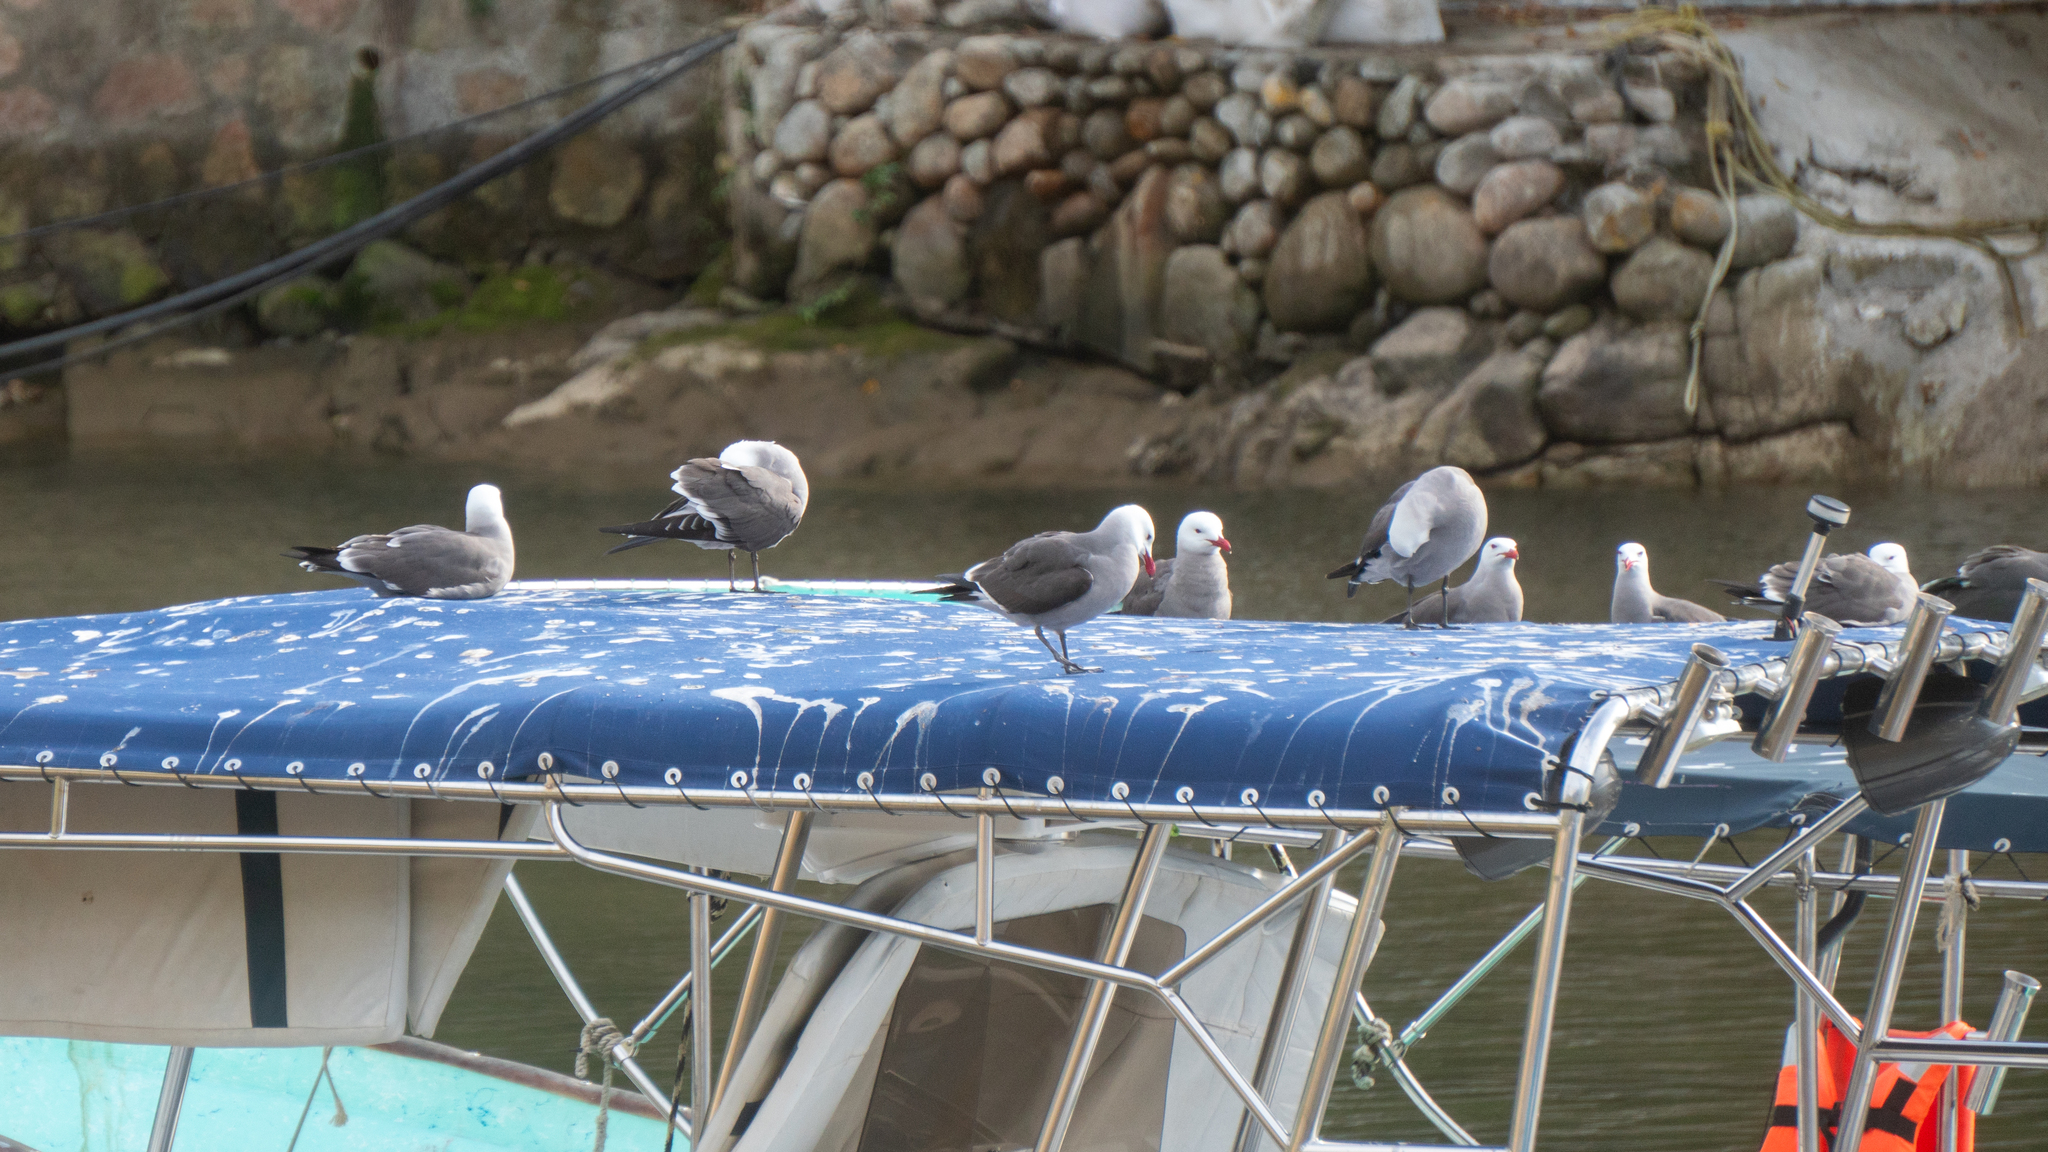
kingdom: Animalia
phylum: Chordata
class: Aves
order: Charadriiformes
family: Laridae
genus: Larus
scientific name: Larus heermanni
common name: Heermann's gull
